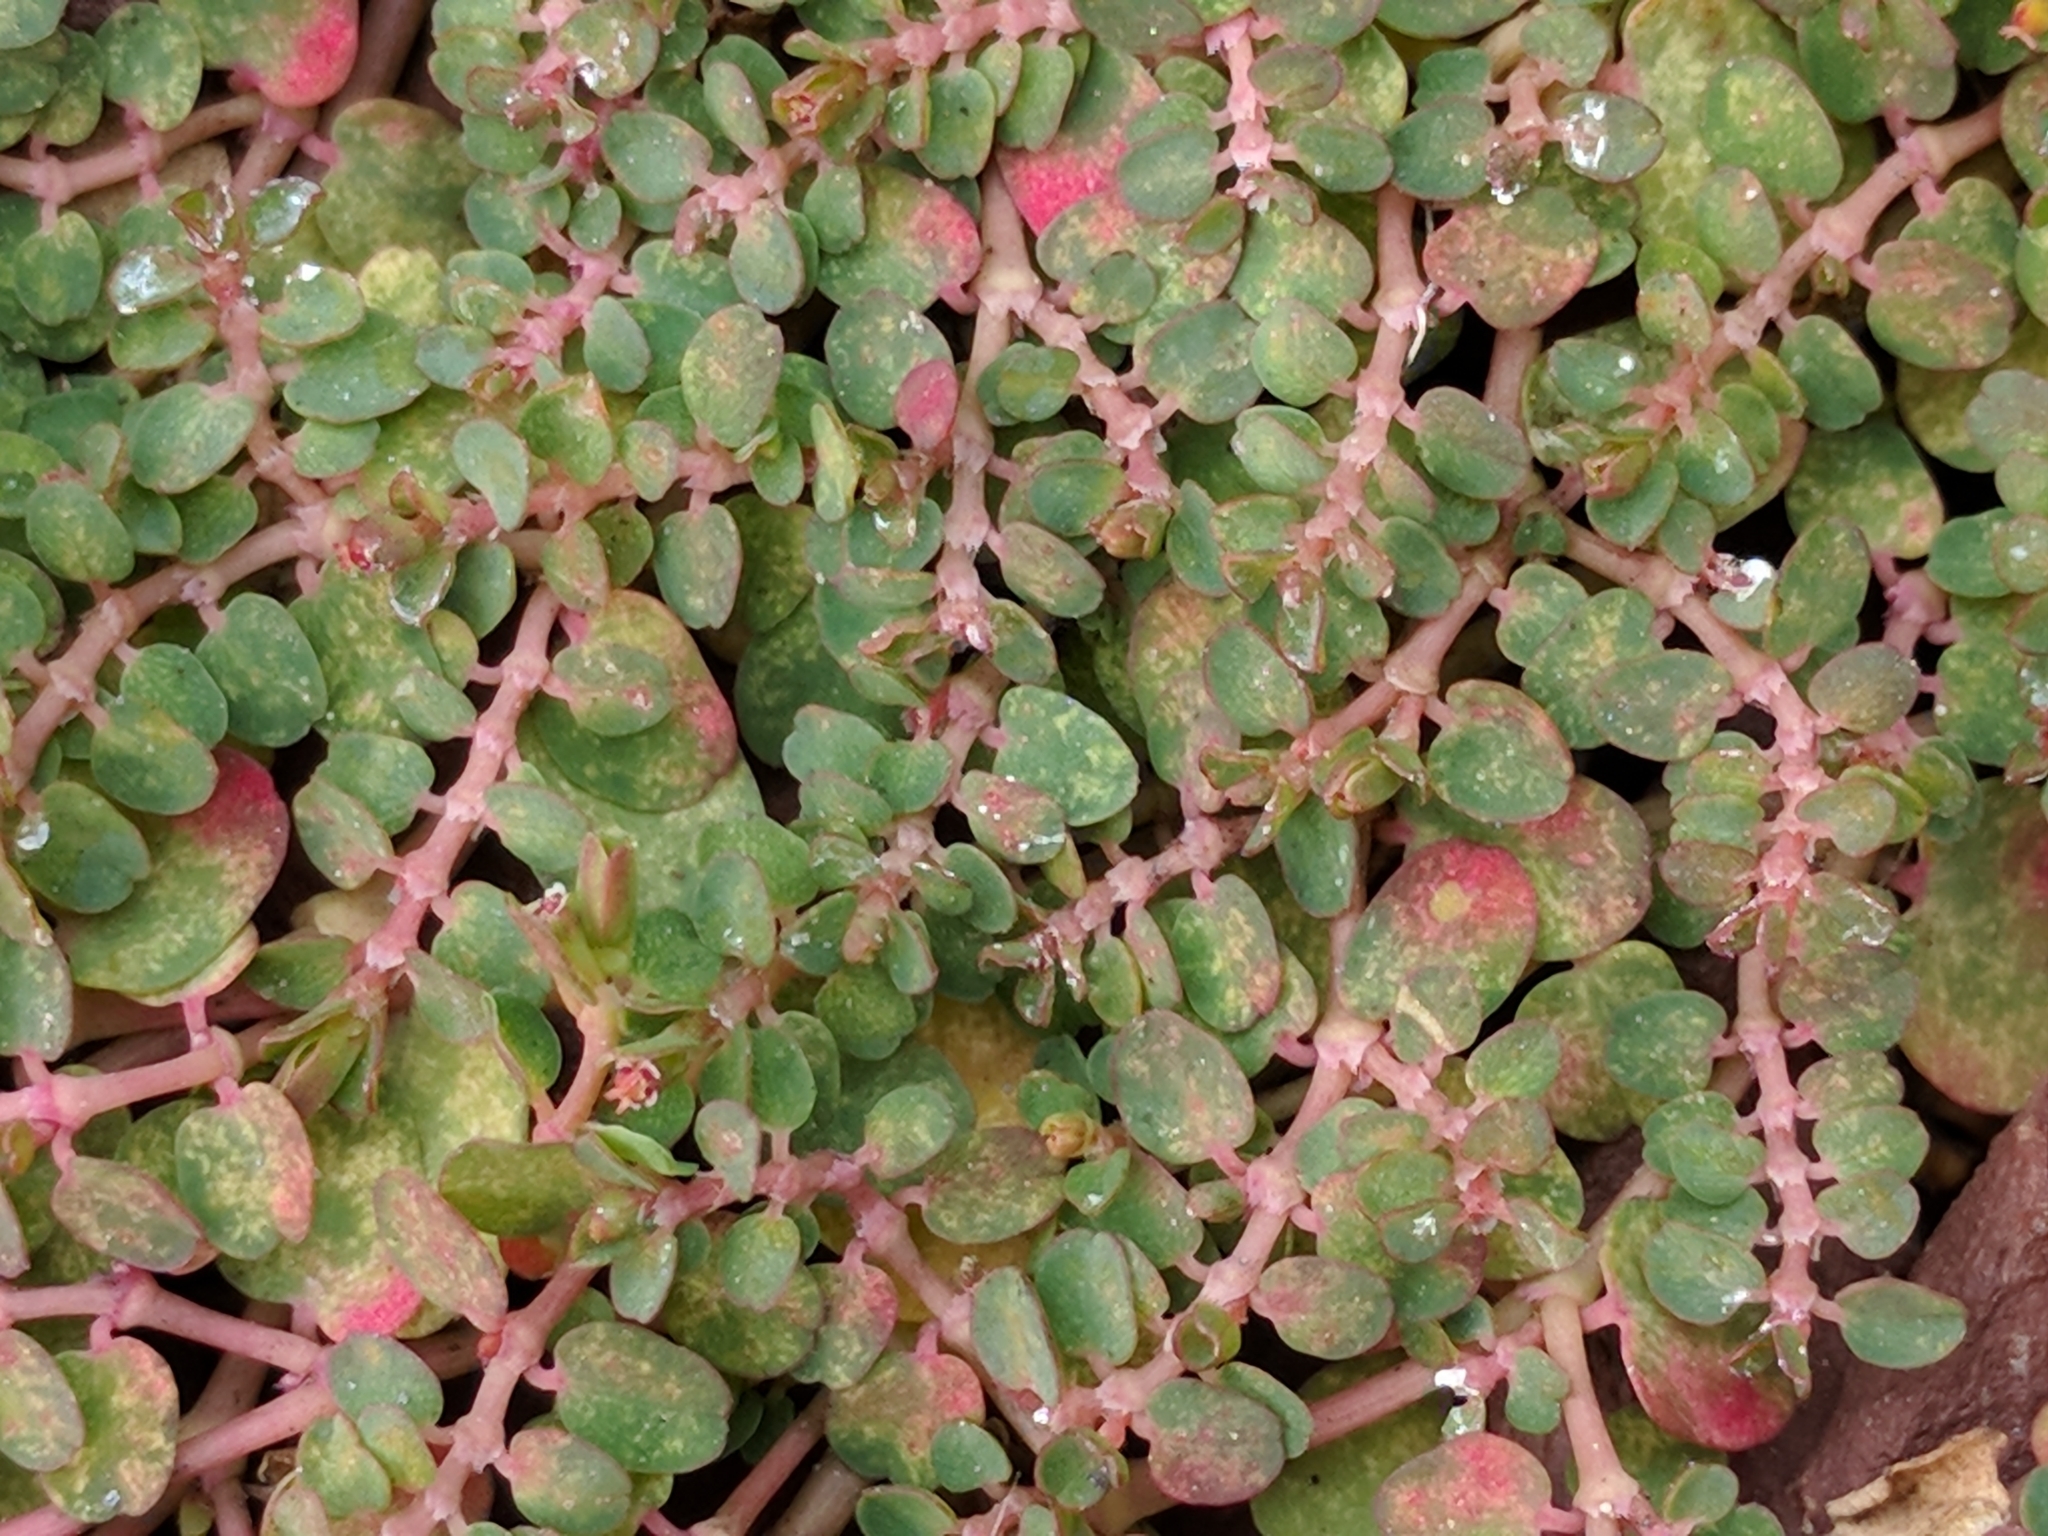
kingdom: Plantae
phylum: Tracheophyta
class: Magnoliopsida
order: Malpighiales
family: Euphorbiaceae
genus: Euphorbia
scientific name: Euphorbia serpens
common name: Matted sandmat
